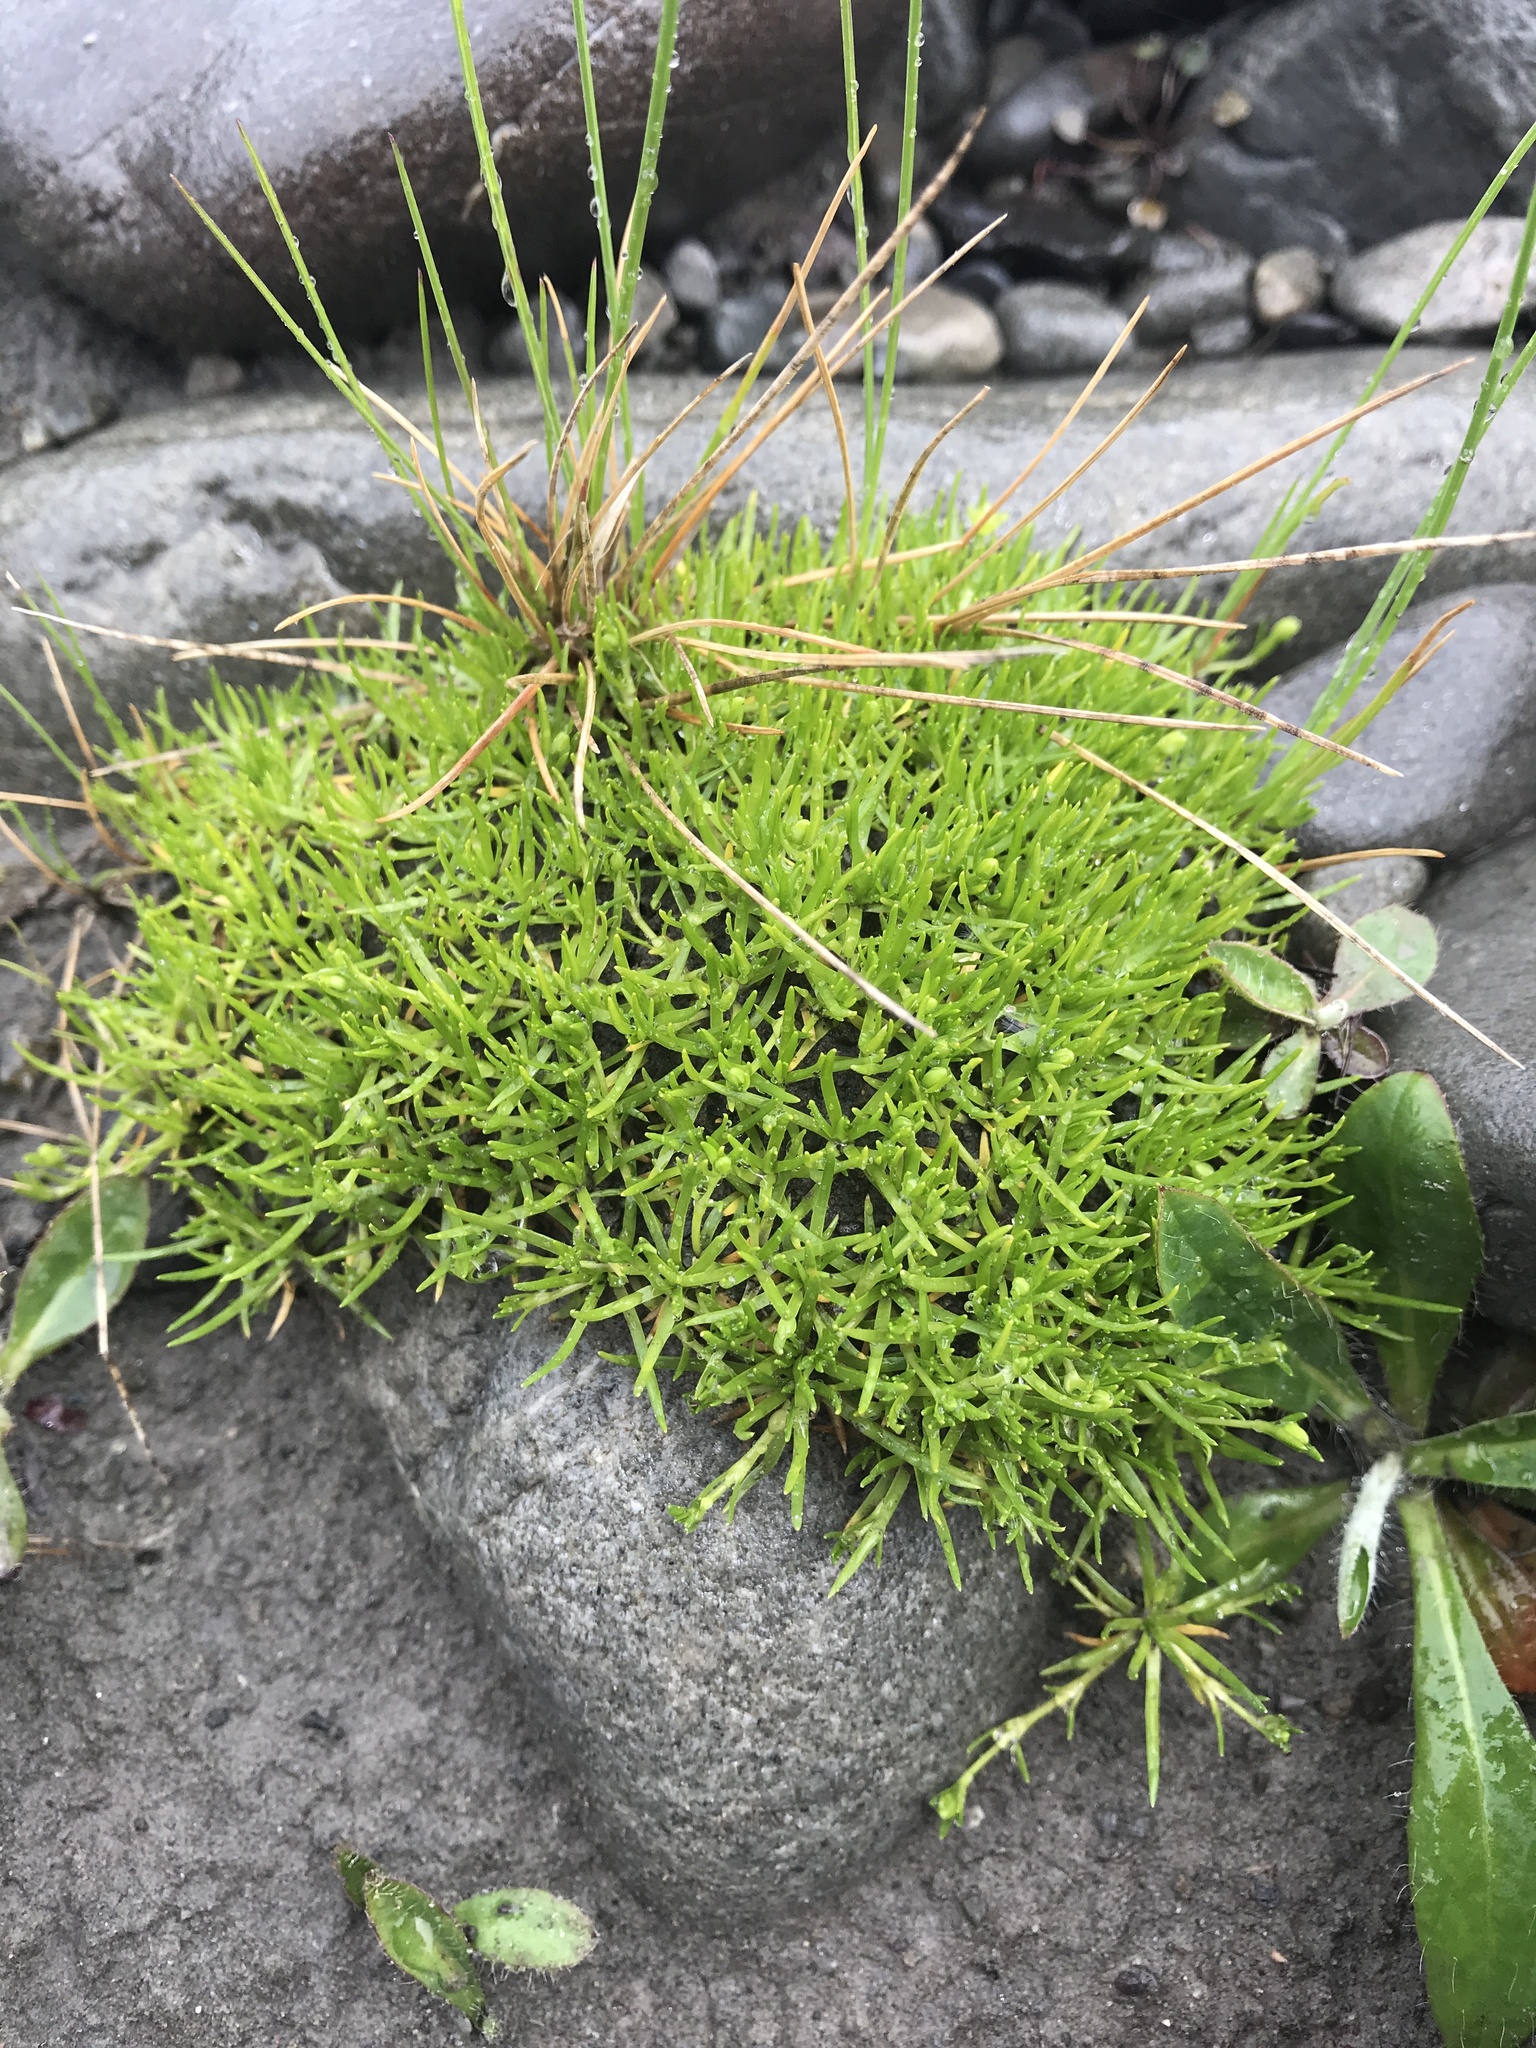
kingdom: Plantae
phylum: Tracheophyta
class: Magnoliopsida
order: Caryophyllales
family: Caryophyllaceae
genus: Sagina
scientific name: Sagina procumbens
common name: Procumbent pearlwort
